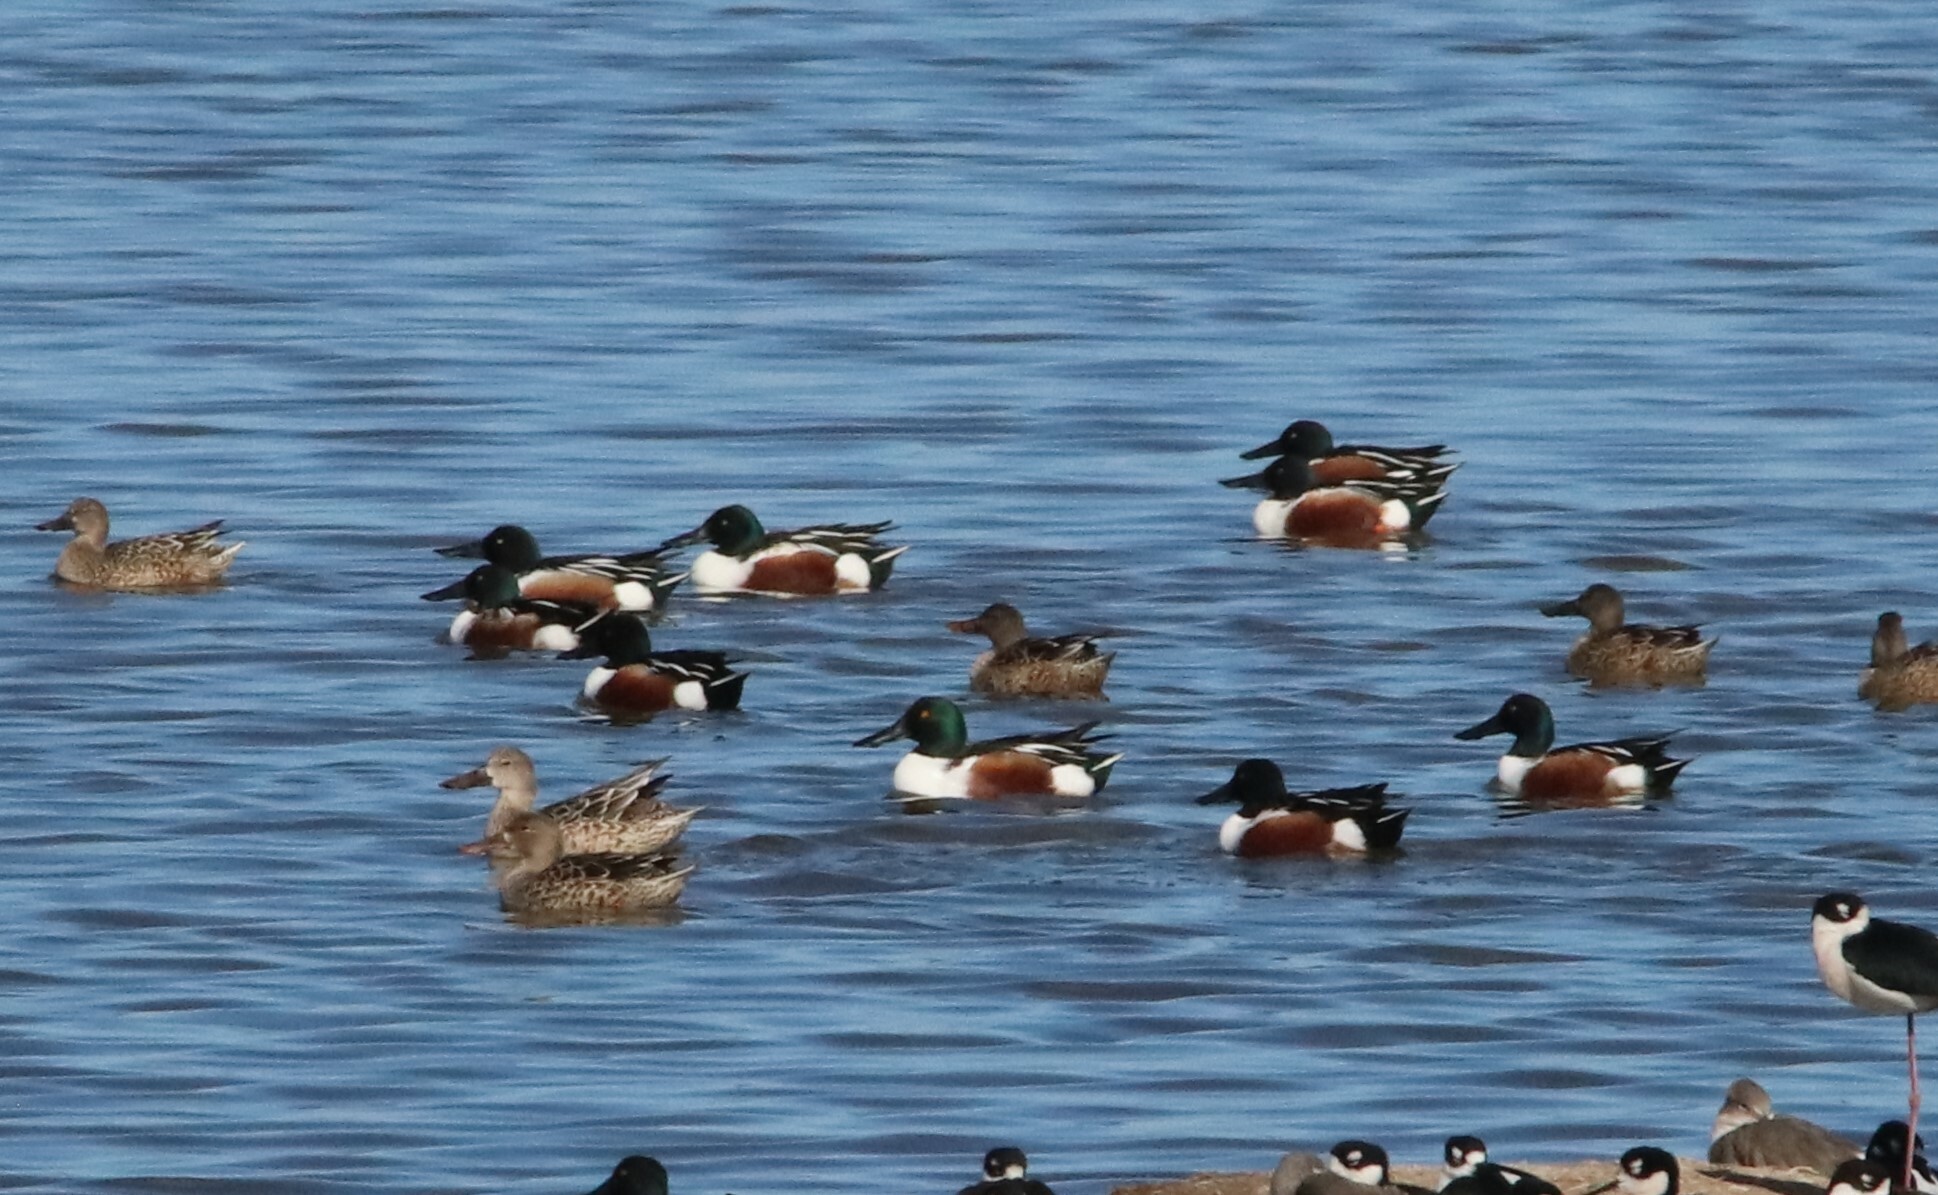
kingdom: Animalia
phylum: Chordata
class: Aves
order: Anseriformes
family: Anatidae
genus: Spatula
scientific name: Spatula clypeata
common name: Northern shoveler
